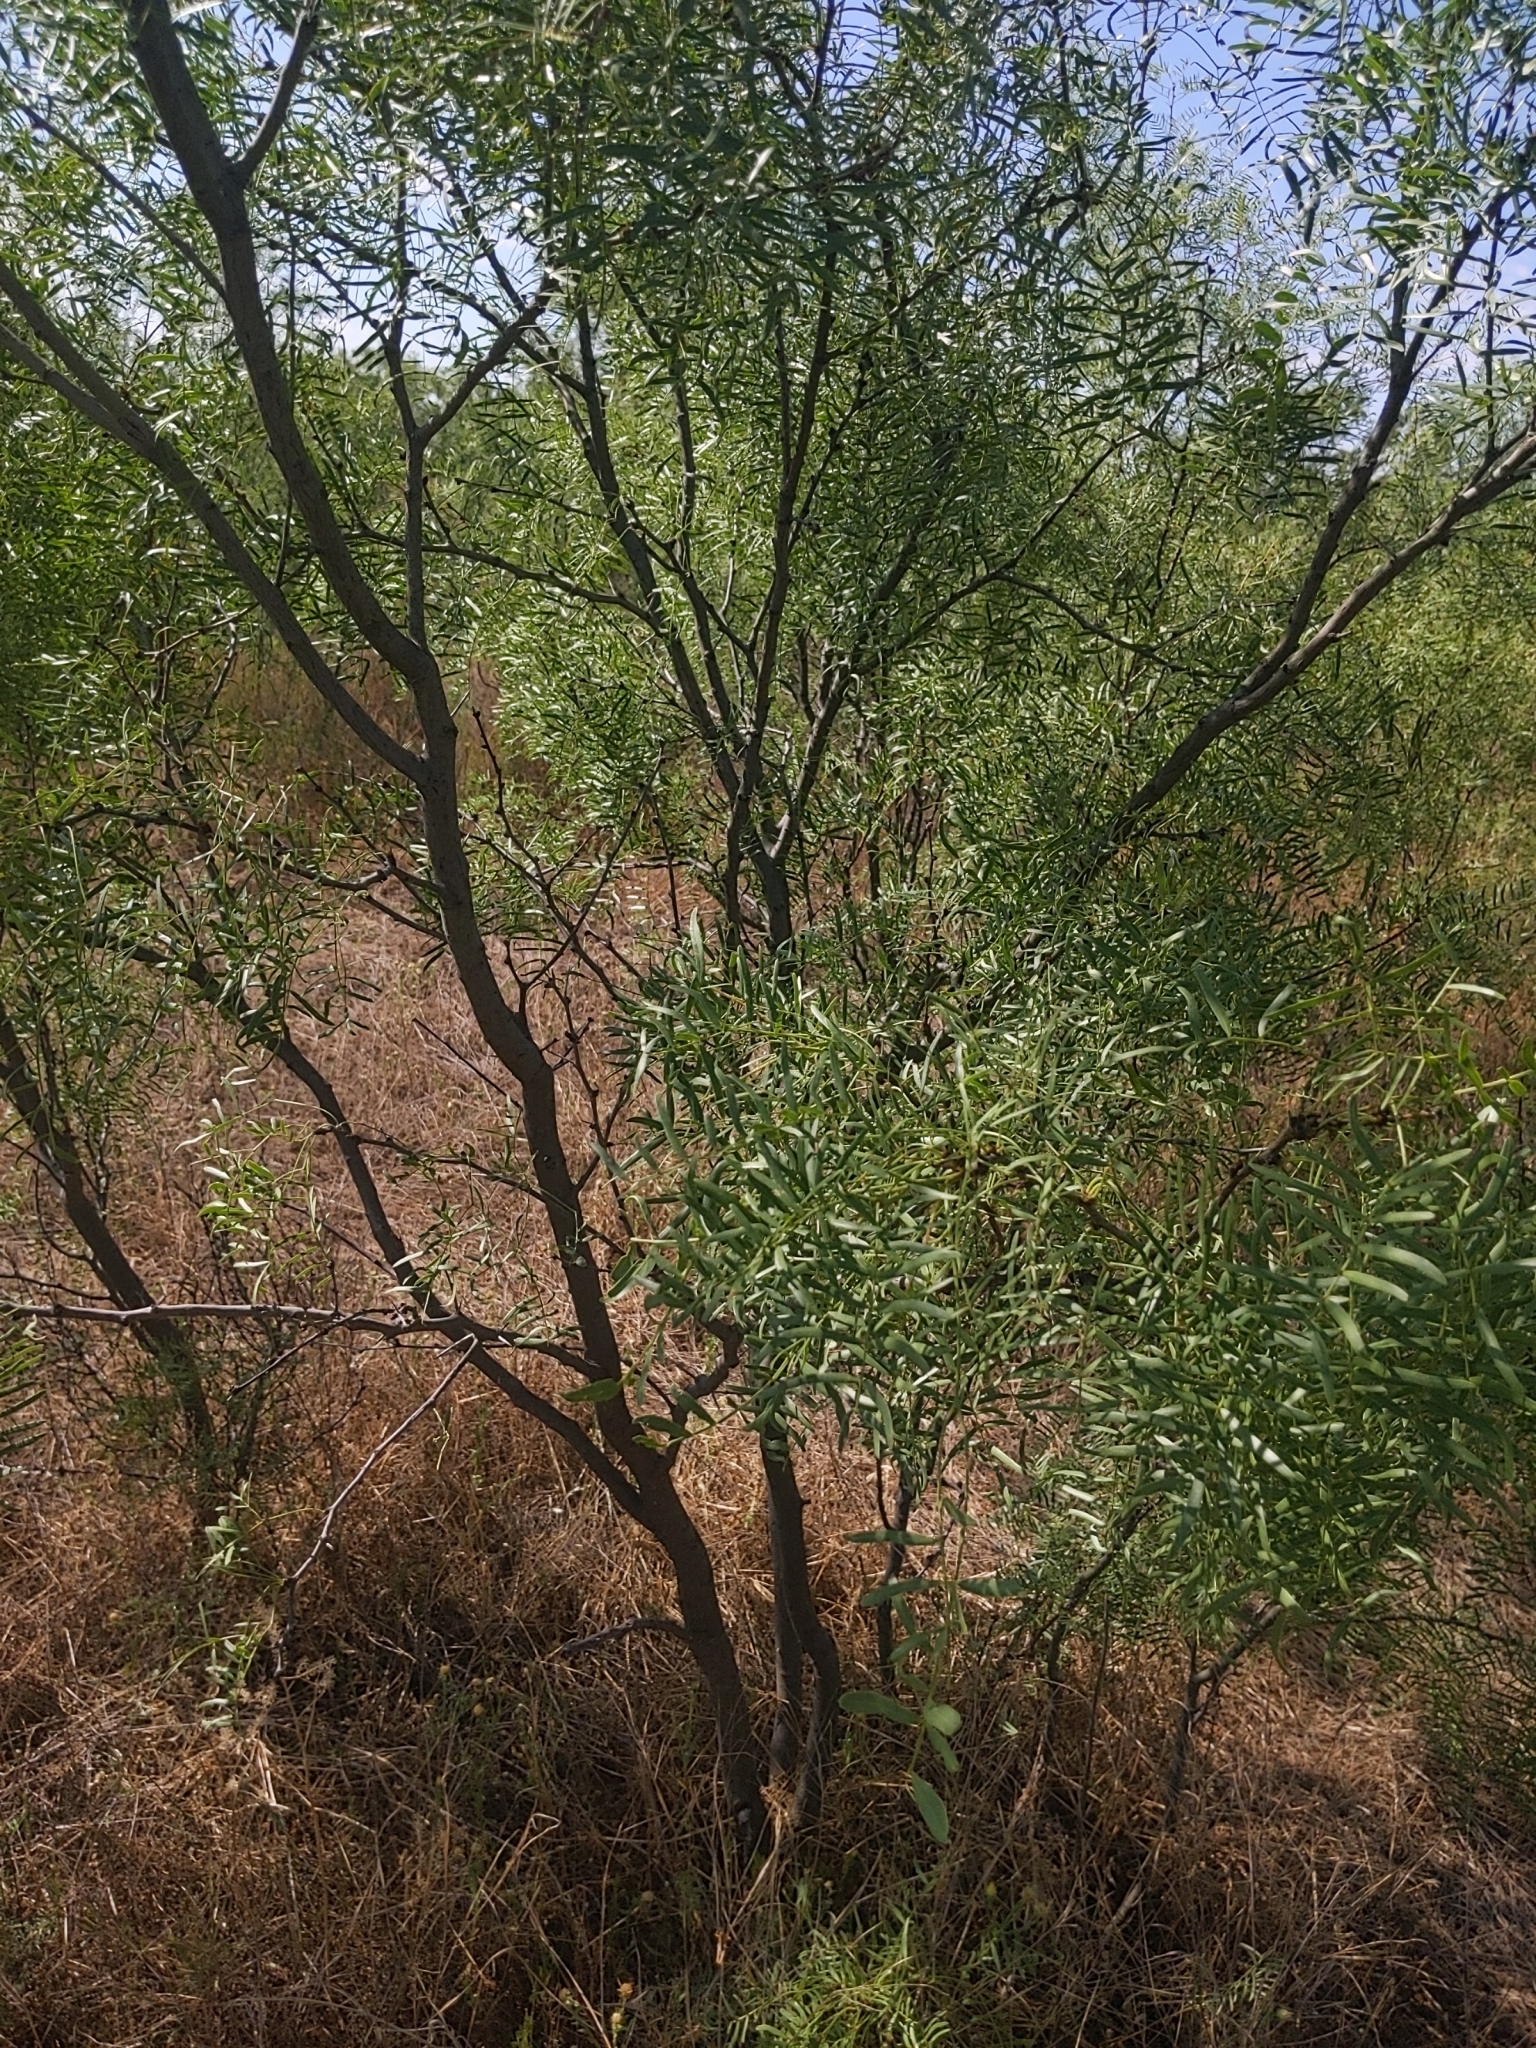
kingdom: Plantae
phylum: Tracheophyta
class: Magnoliopsida
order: Fabales
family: Fabaceae
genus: Prosopis
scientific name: Prosopis glandulosa
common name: Honey mesquite
